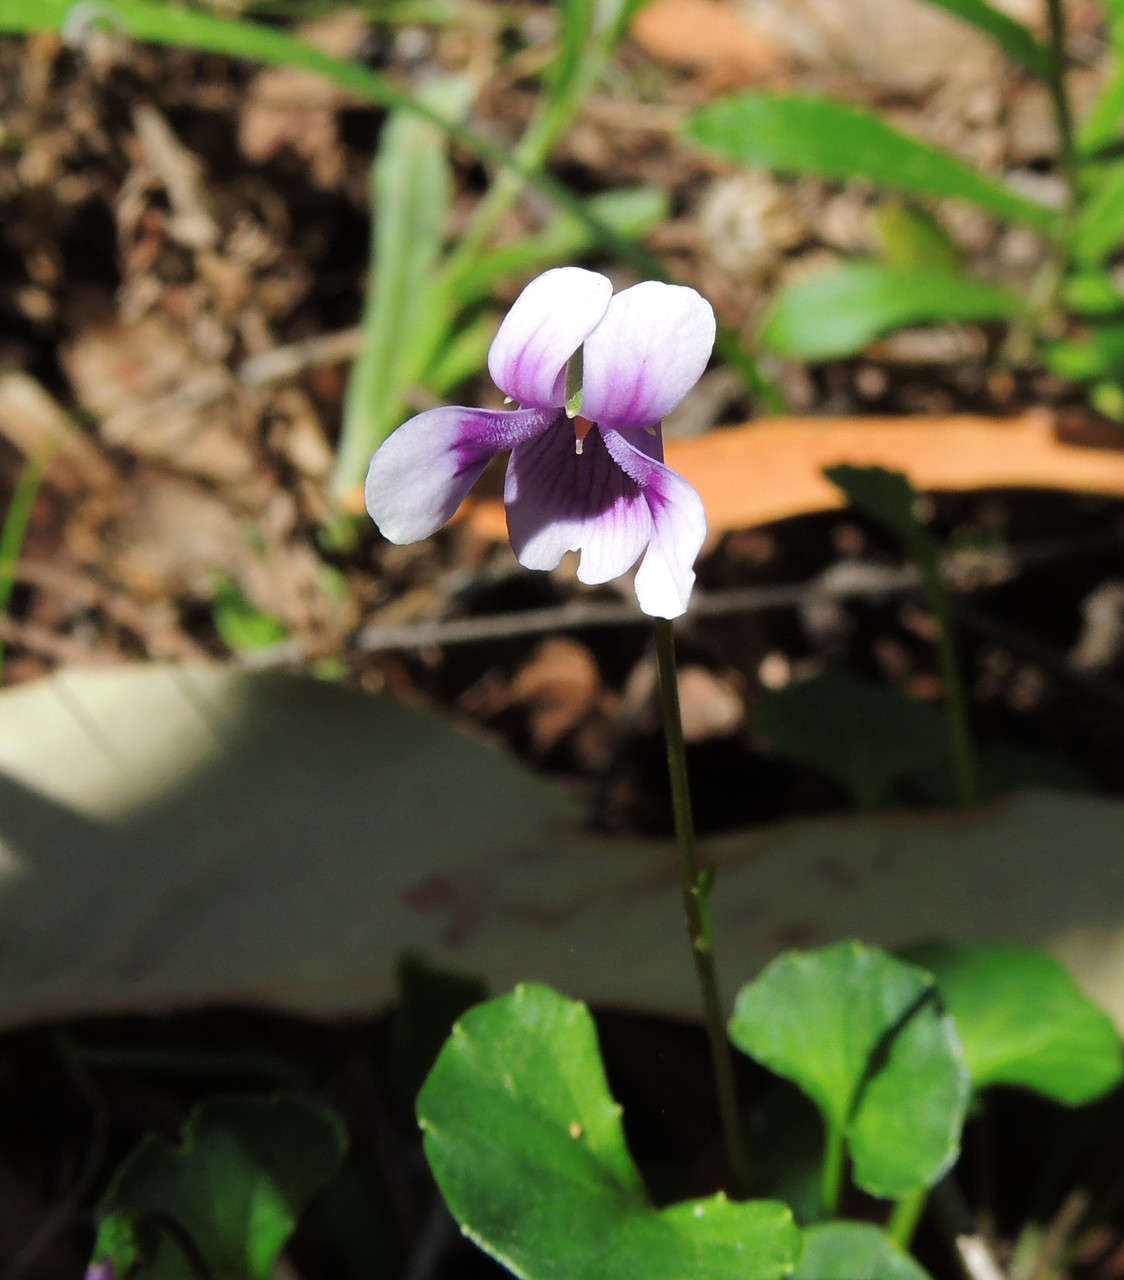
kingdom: Plantae
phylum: Tracheophyta
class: Magnoliopsida
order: Malpighiales
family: Violaceae
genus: Viola
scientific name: Viola hederacea
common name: Australian violet
